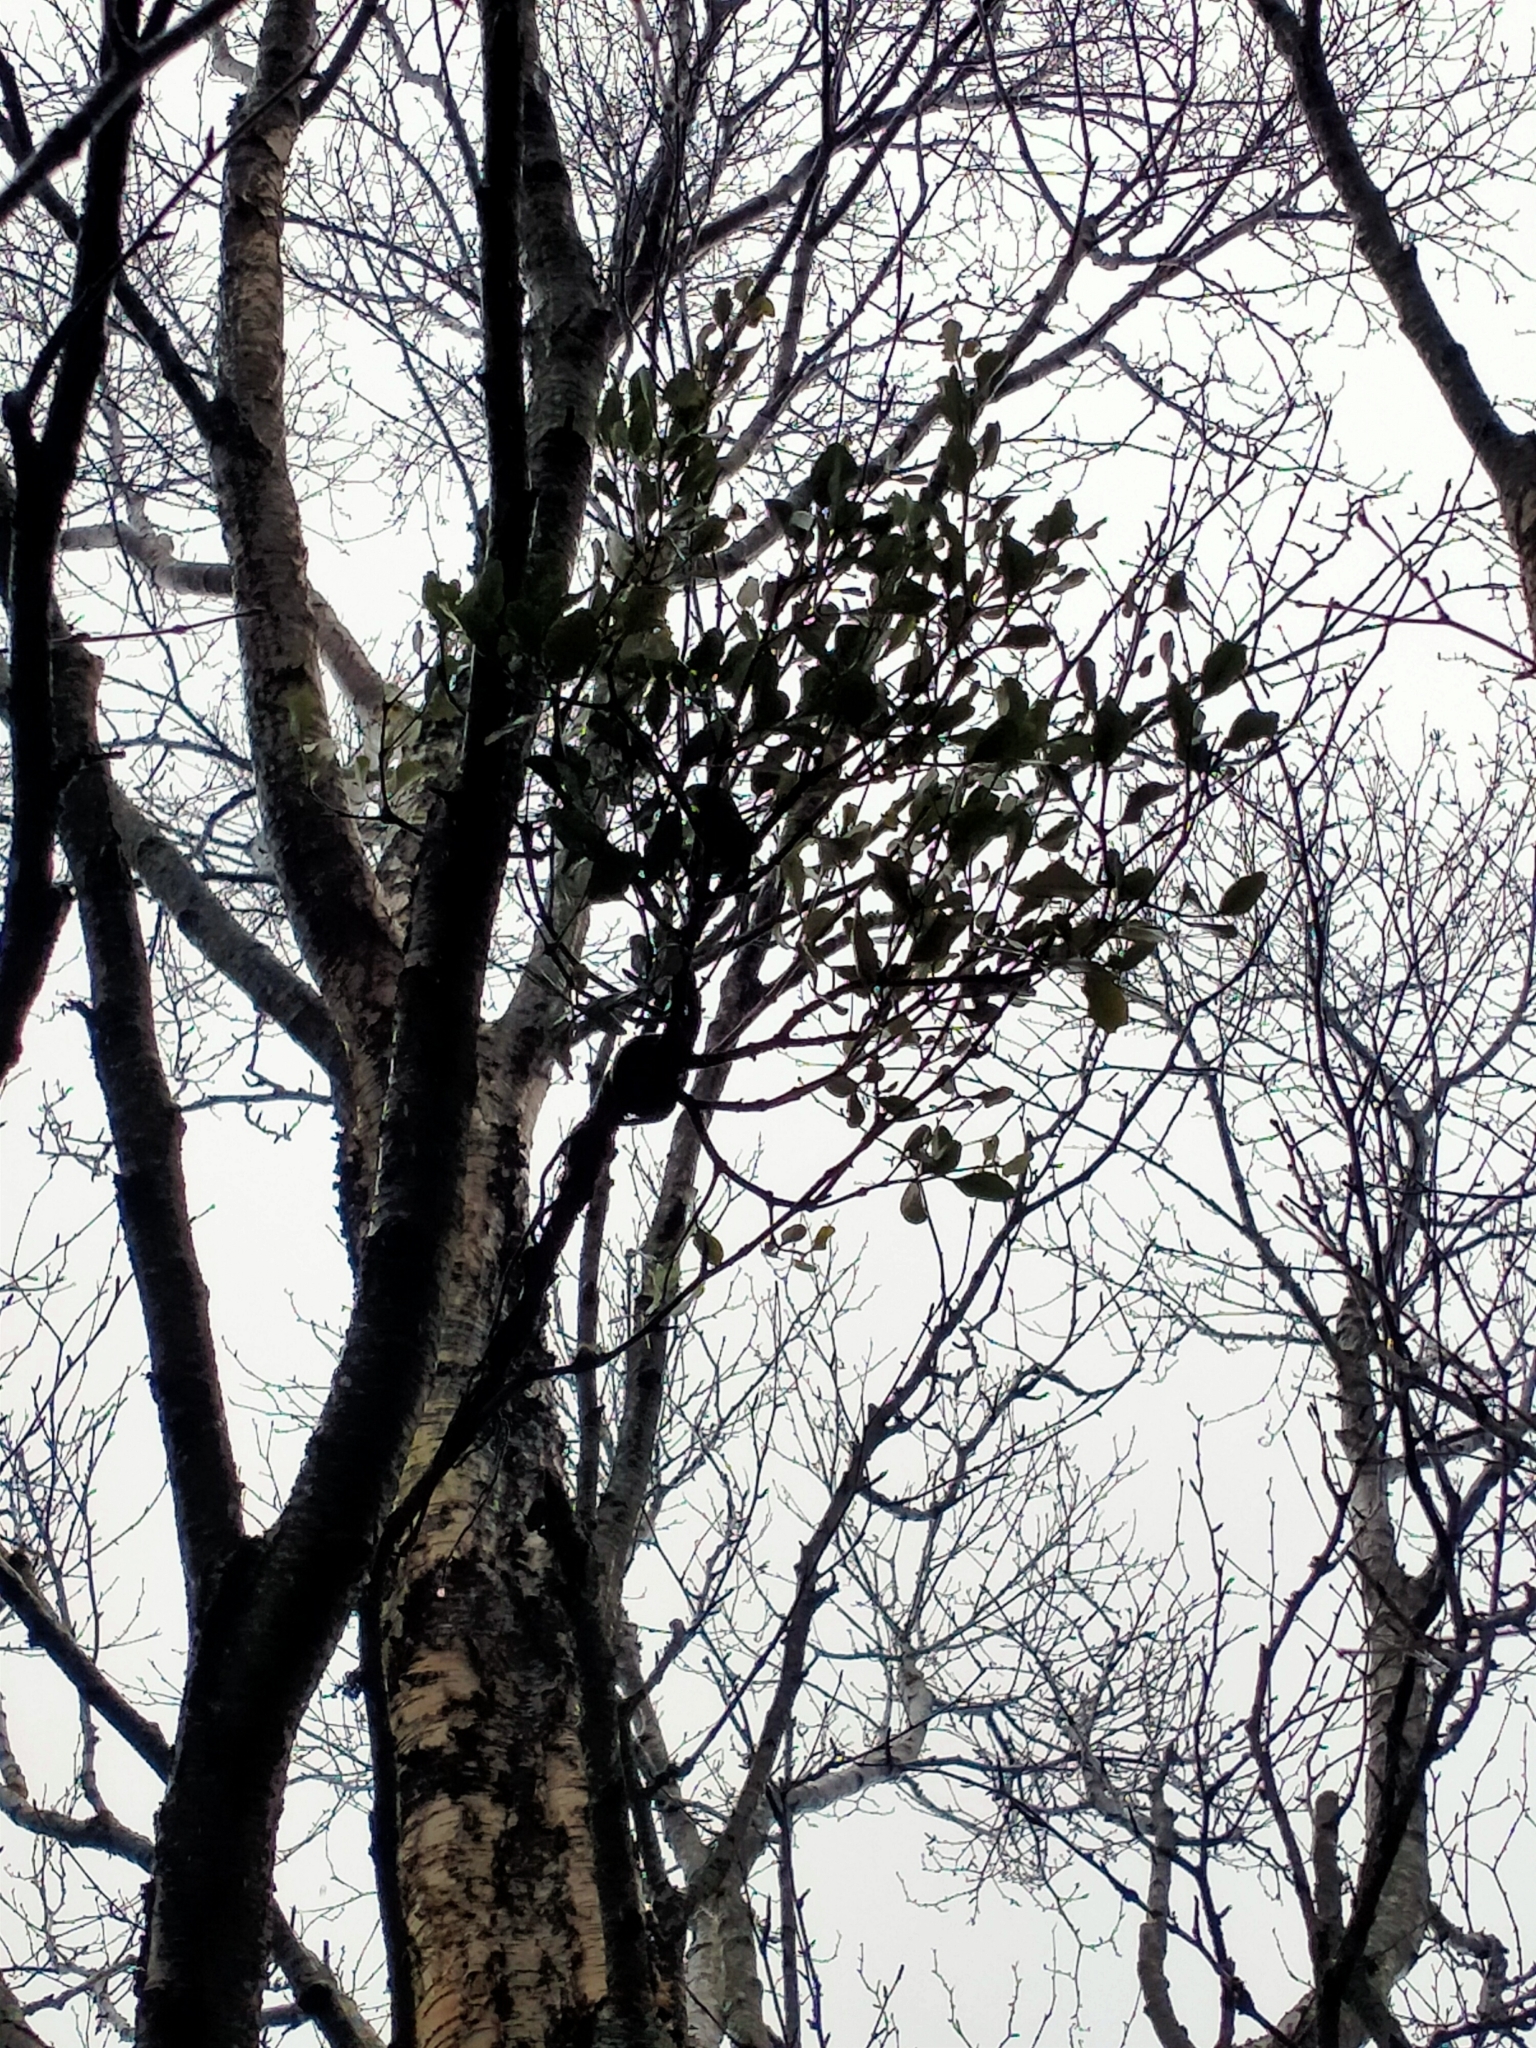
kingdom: Plantae
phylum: Tracheophyta
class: Magnoliopsida
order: Santalales
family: Loranthaceae
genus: Ileostylus
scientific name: Ileostylus micranthus
